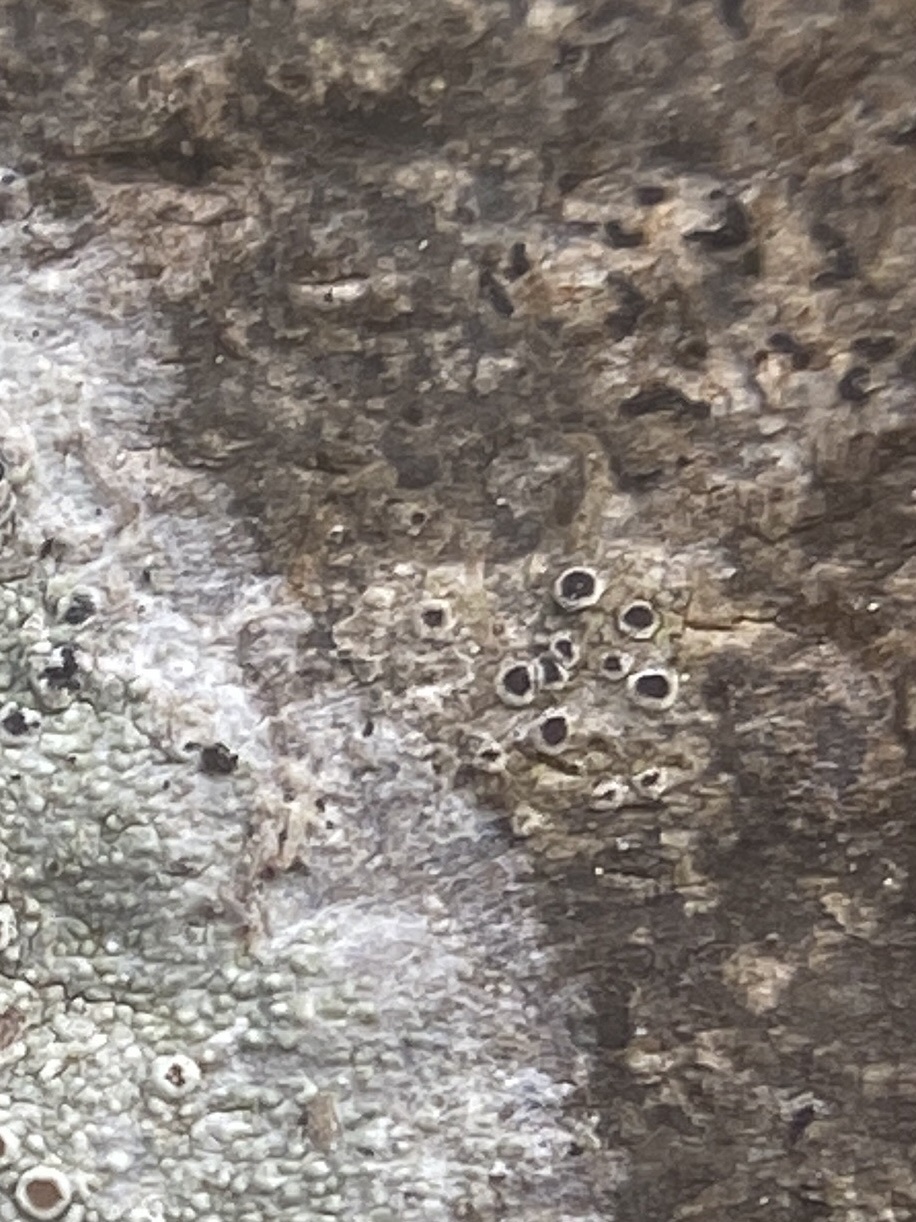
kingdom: Fungi
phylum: Ascomycota
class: Arthoniomycetes
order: Arthoniales
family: Roccellaceae
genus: Schismatomma
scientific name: Schismatomma rappii
